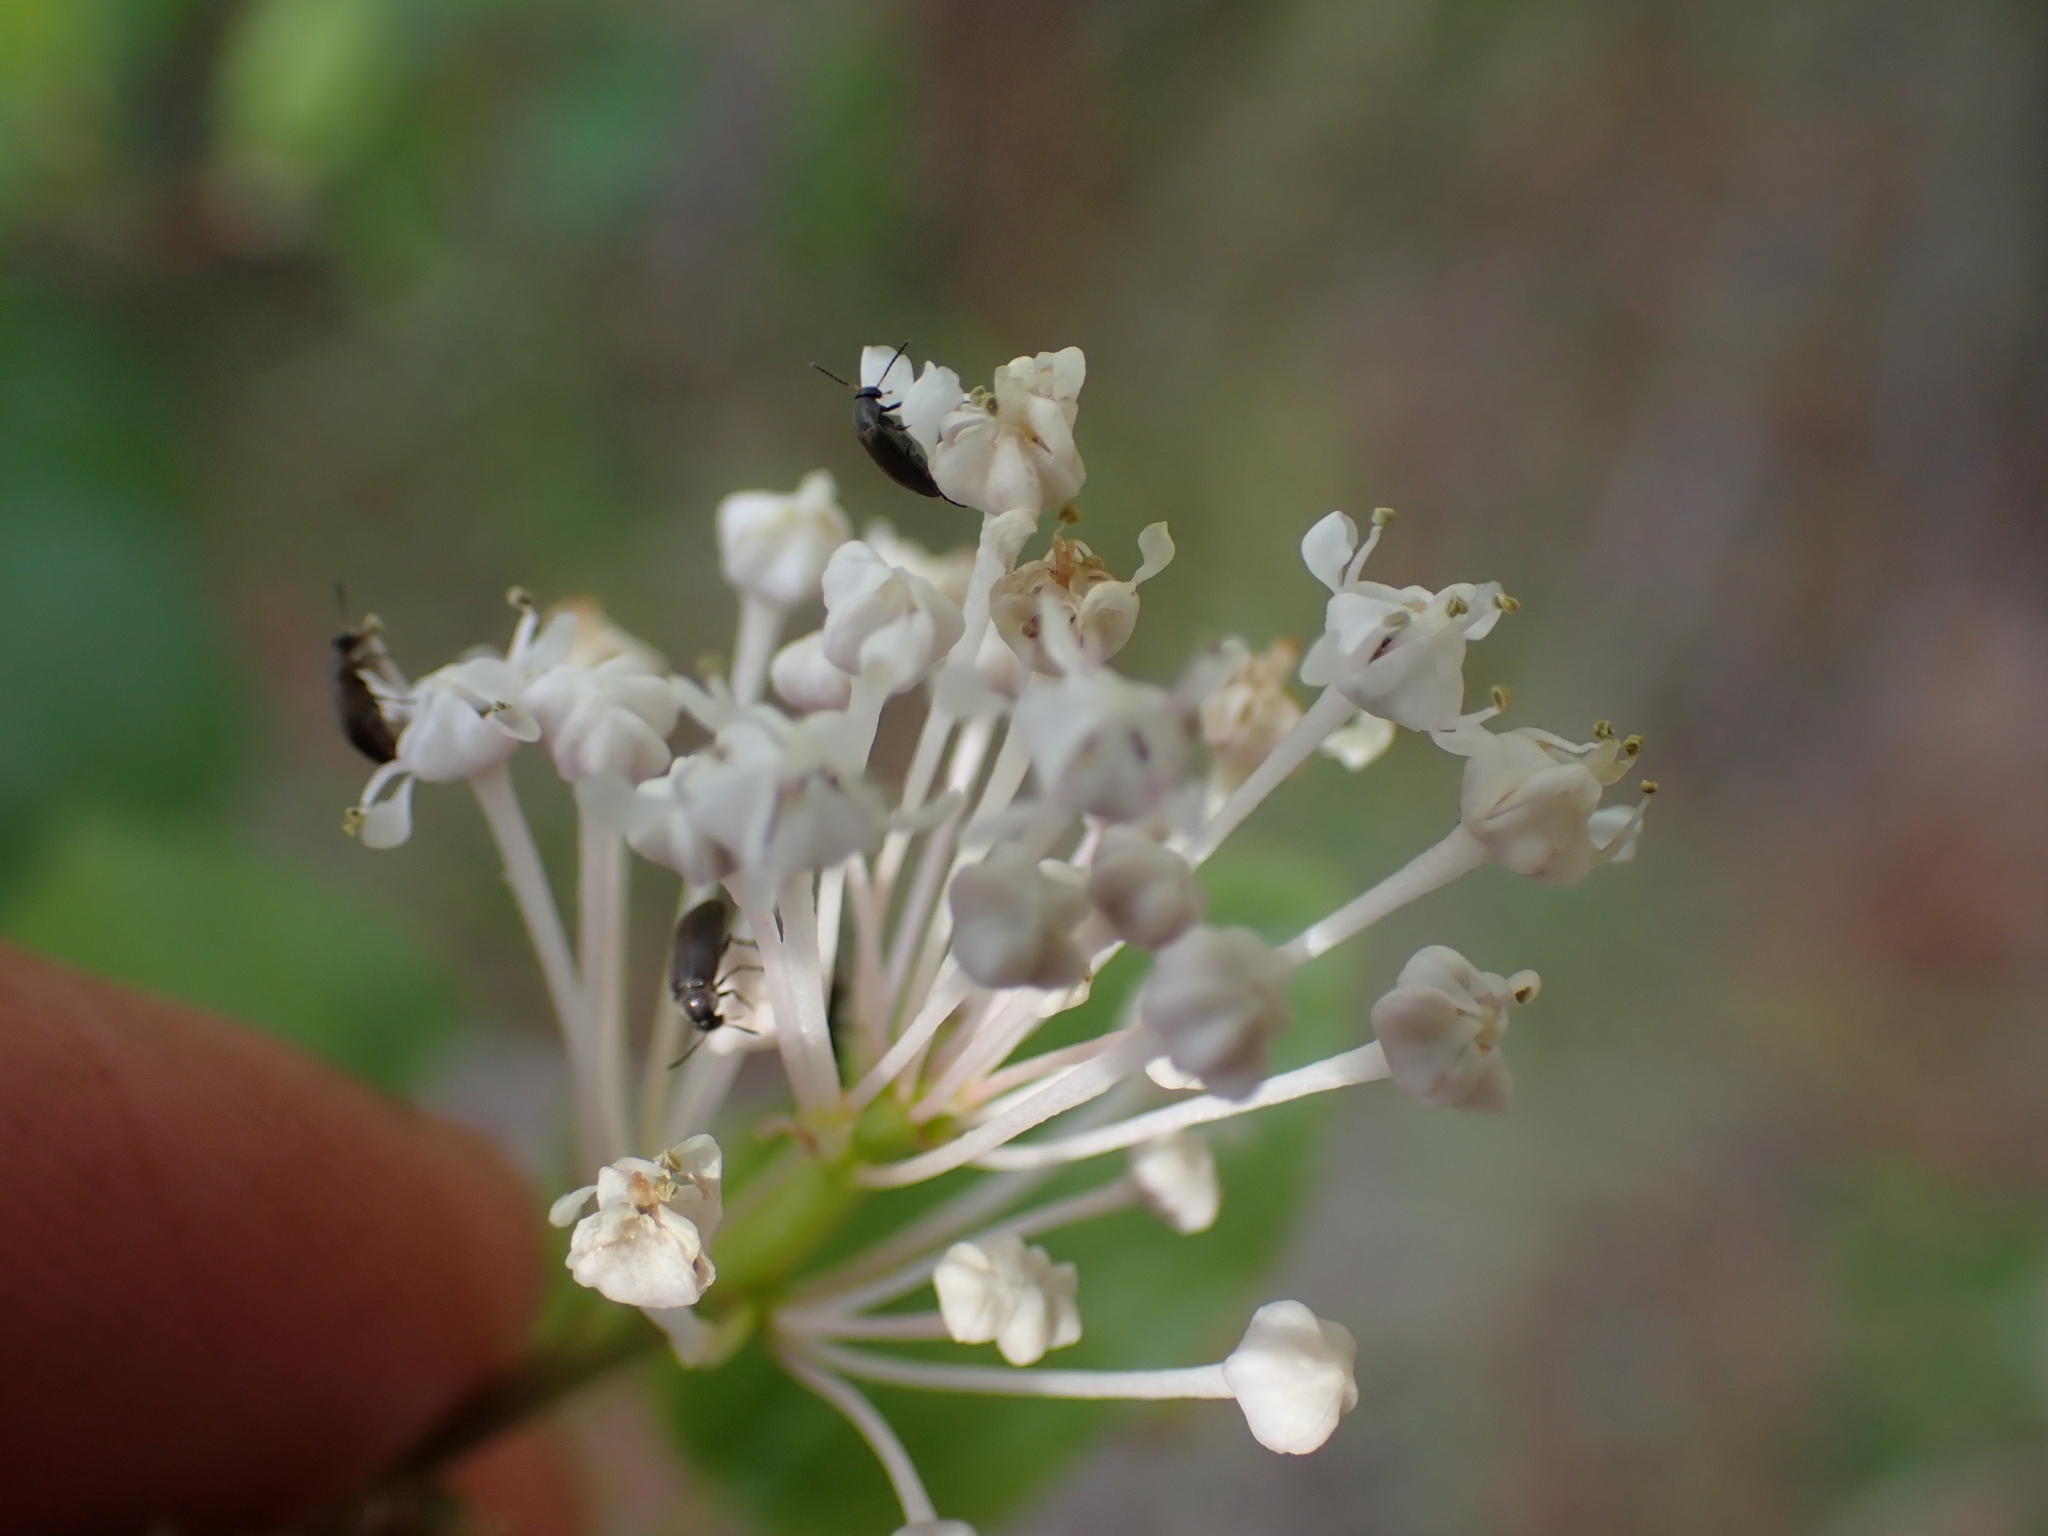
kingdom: Plantae
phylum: Tracheophyta
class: Magnoliopsida
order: Rosales
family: Rhamnaceae
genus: Ceanothus
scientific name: Ceanothus sanguineus
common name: Teatree
